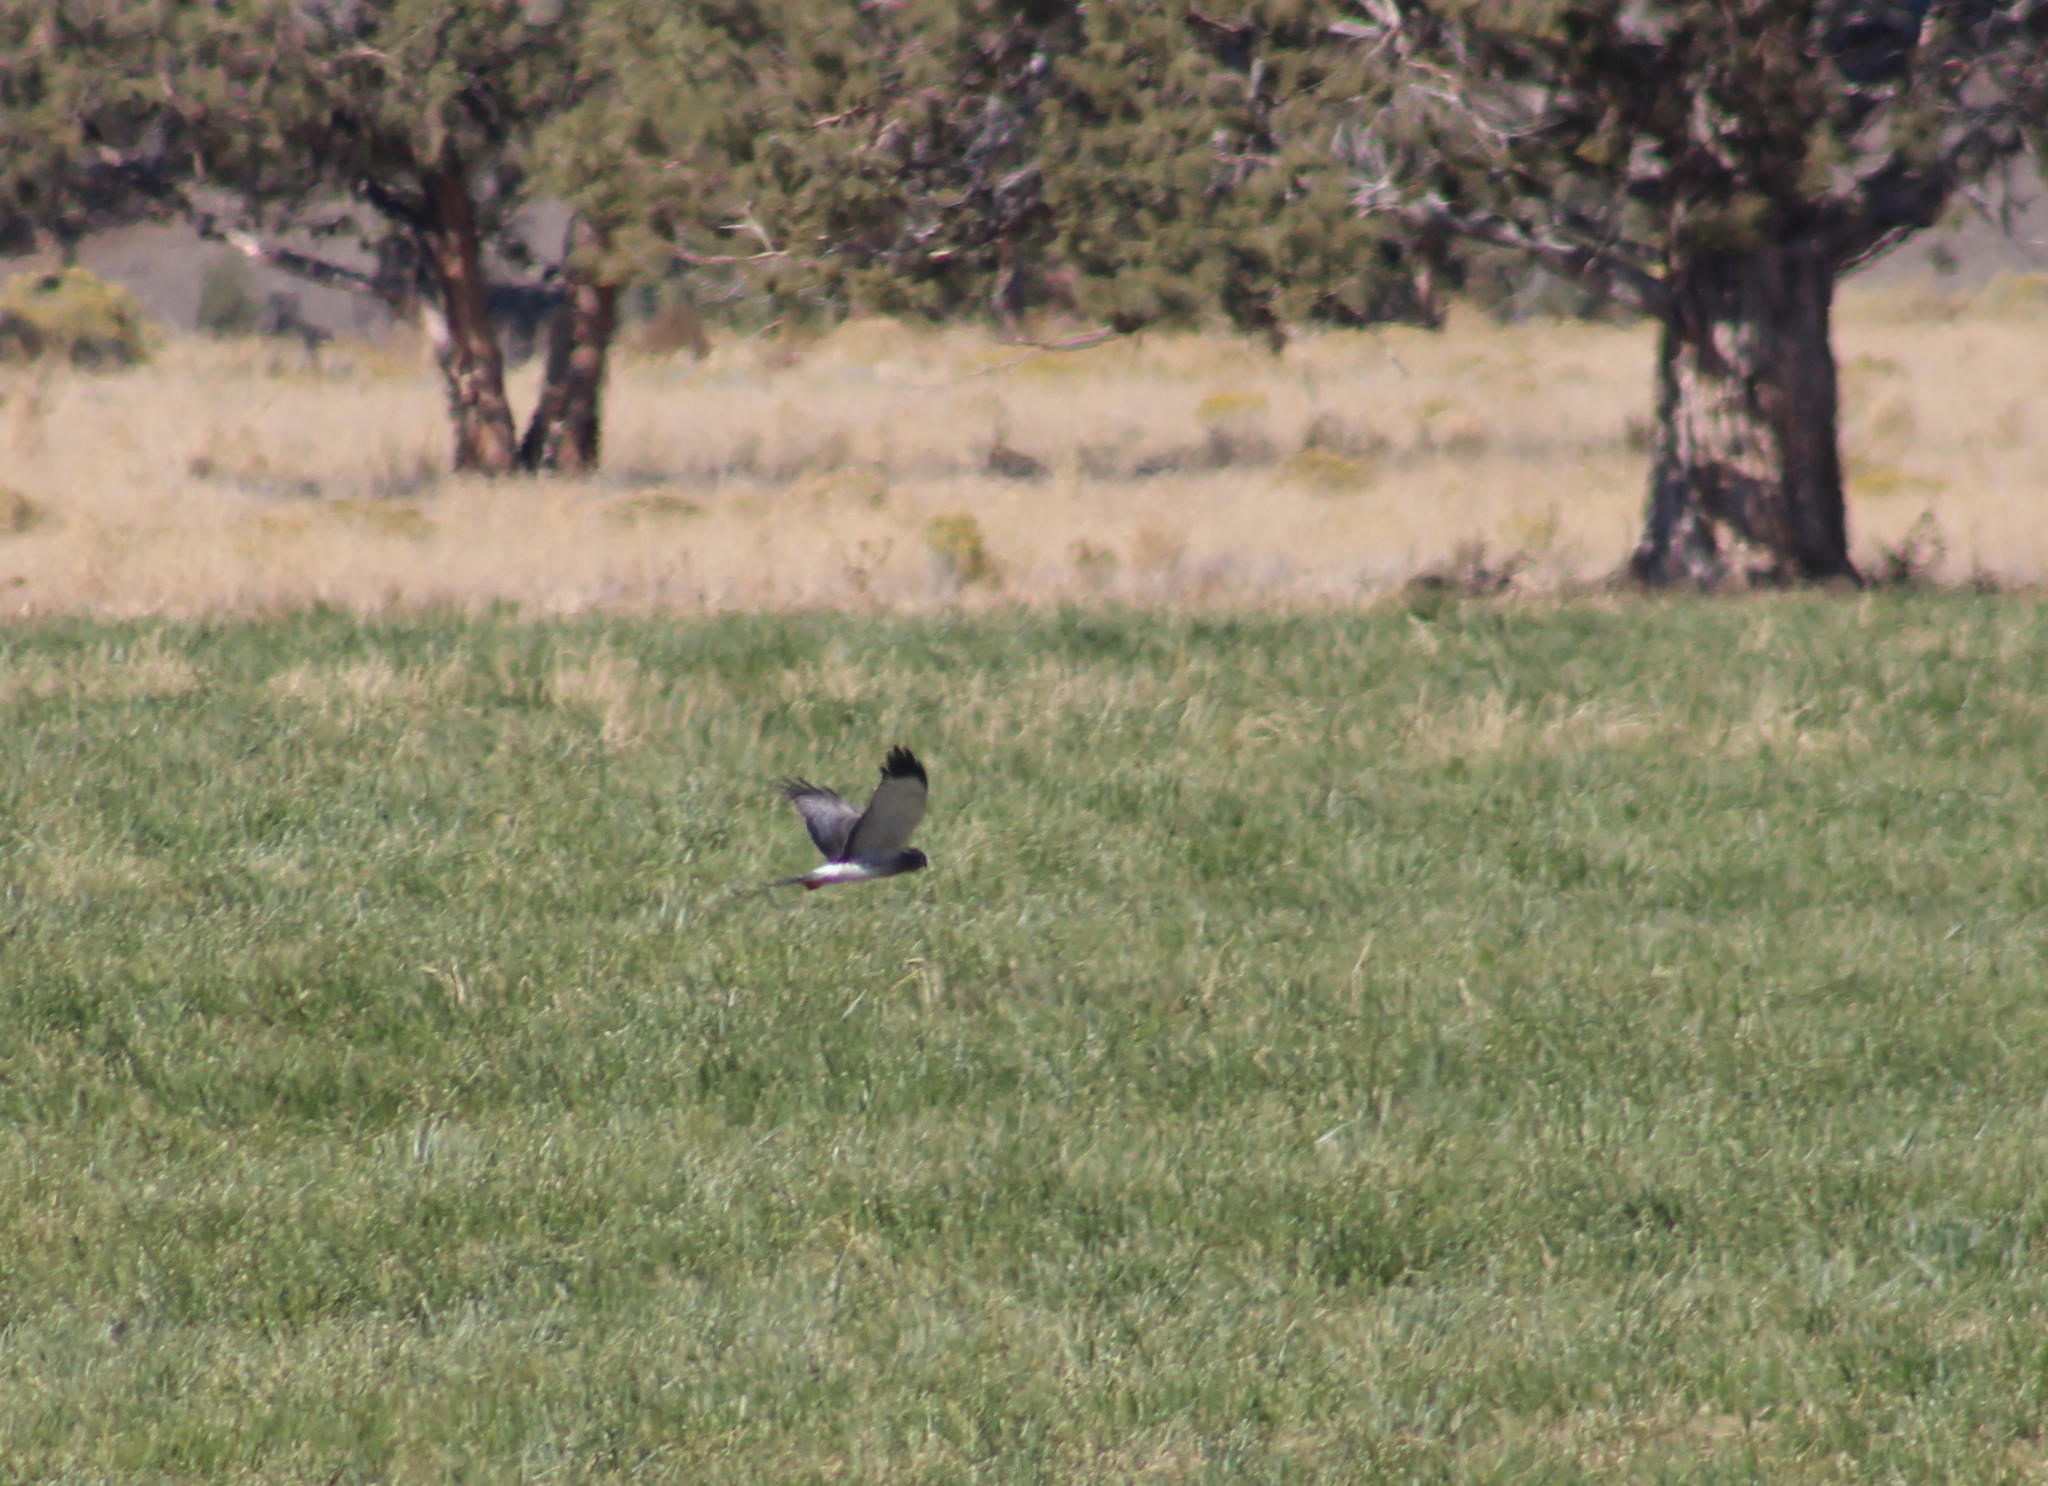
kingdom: Animalia
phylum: Chordata
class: Aves
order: Accipitriformes
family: Accipitridae
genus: Circus
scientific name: Circus cyaneus
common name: Hen harrier
